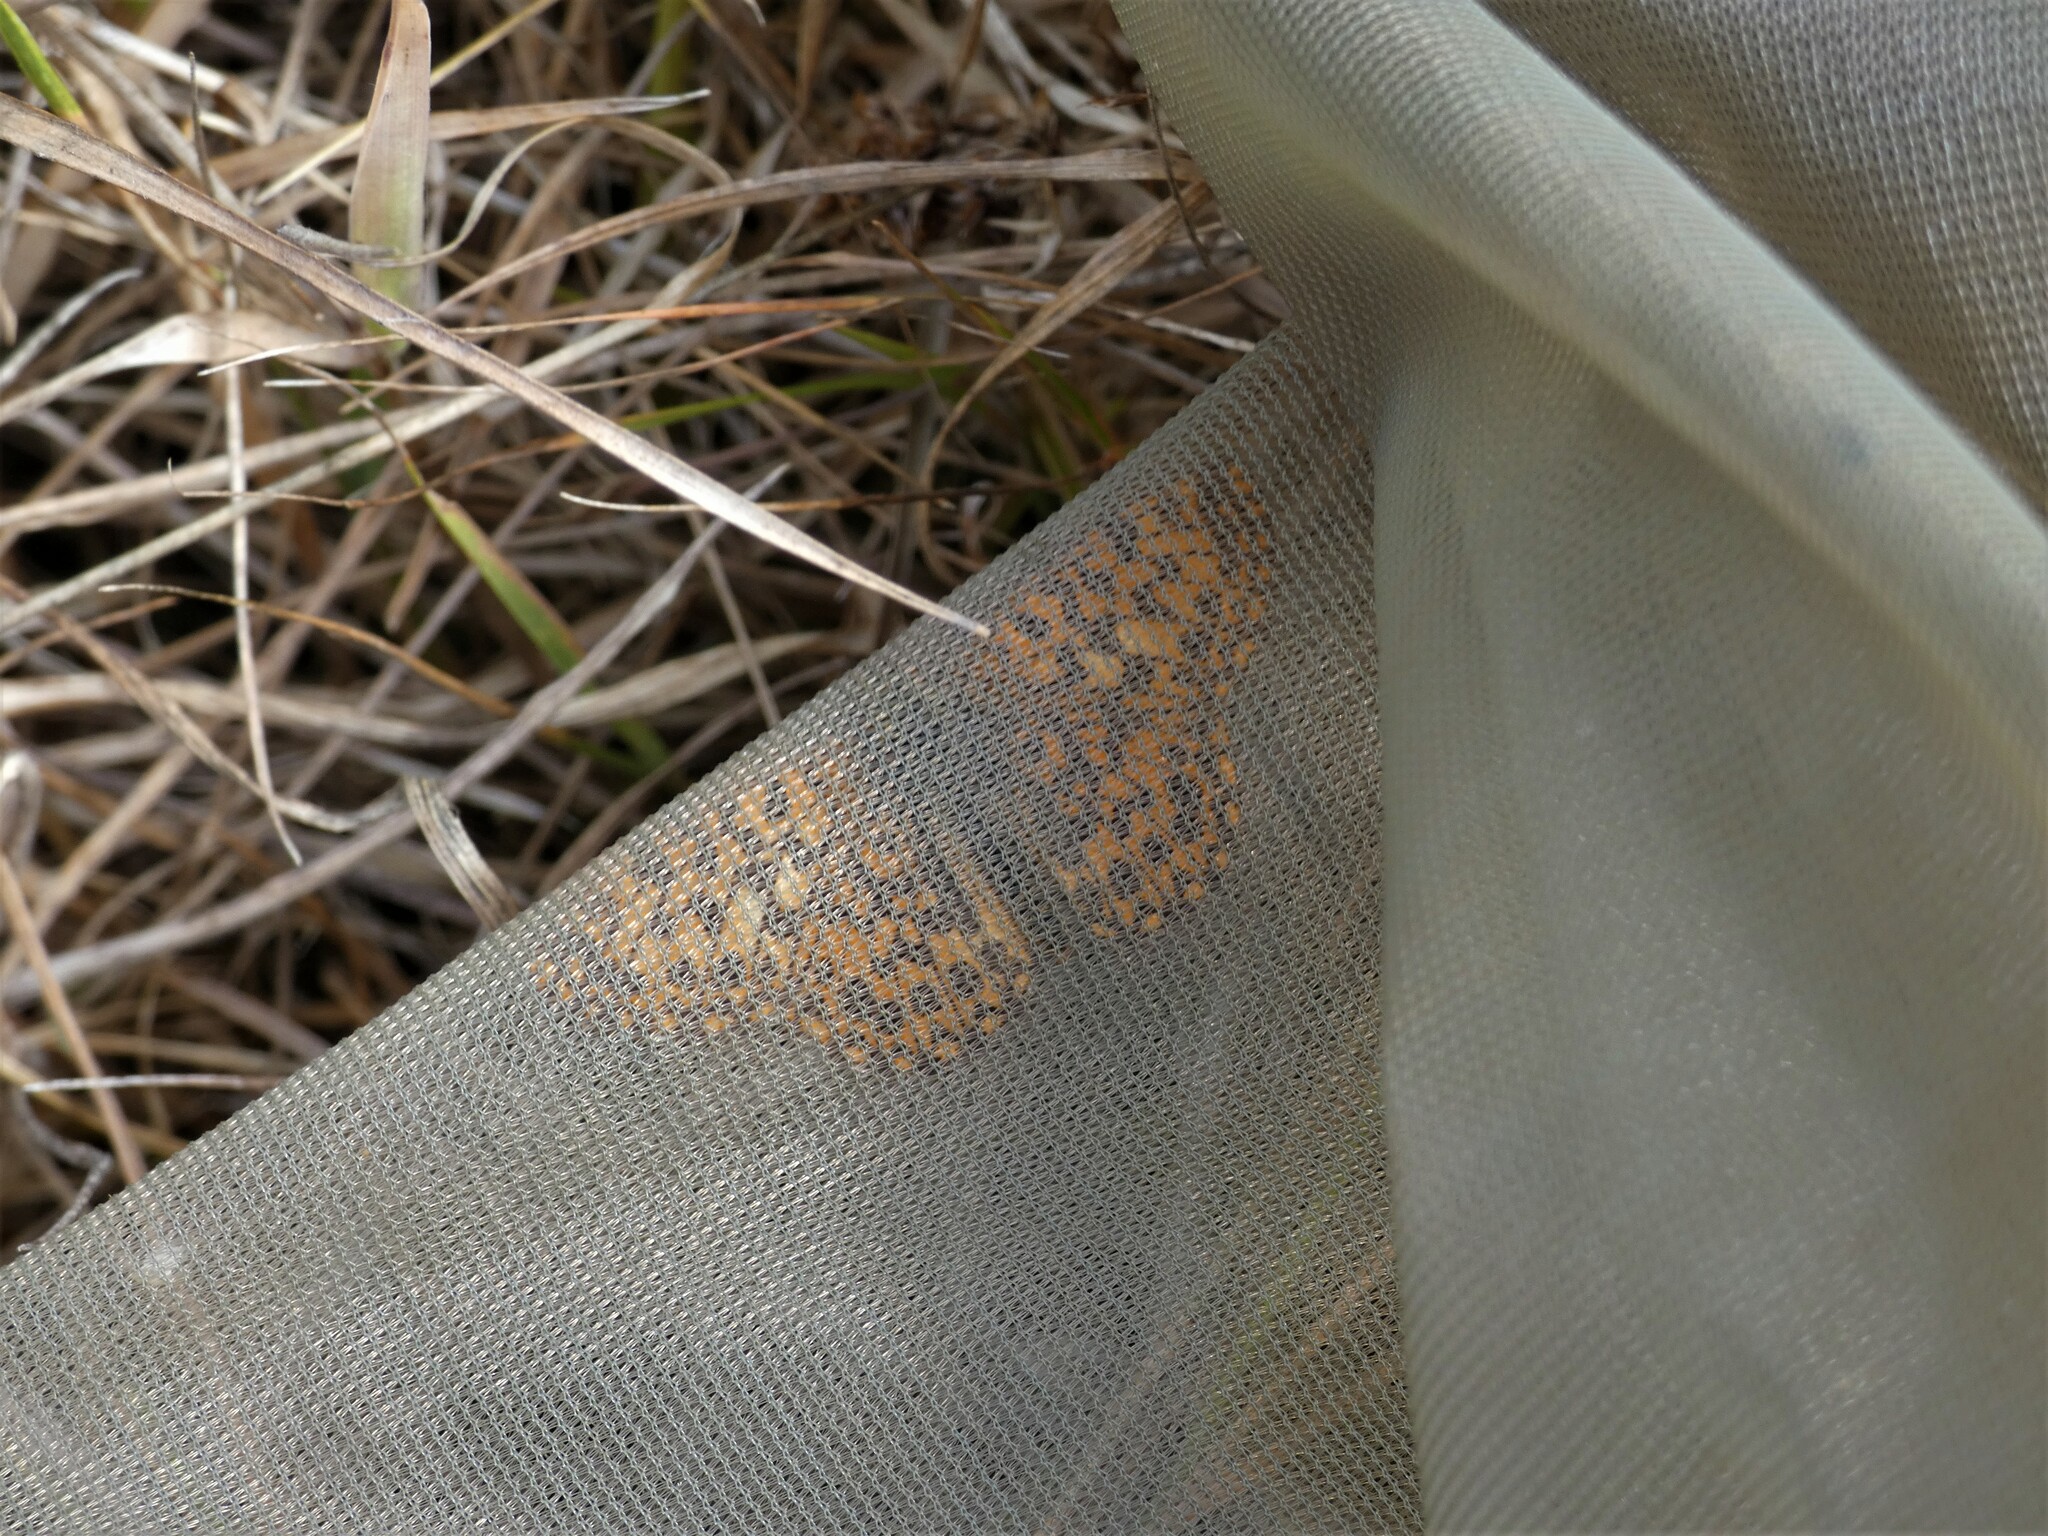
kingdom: Animalia
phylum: Arthropoda
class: Insecta
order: Lepidoptera
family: Nymphalidae
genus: Boloria
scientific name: Boloria dia
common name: Weaver's fritillary
